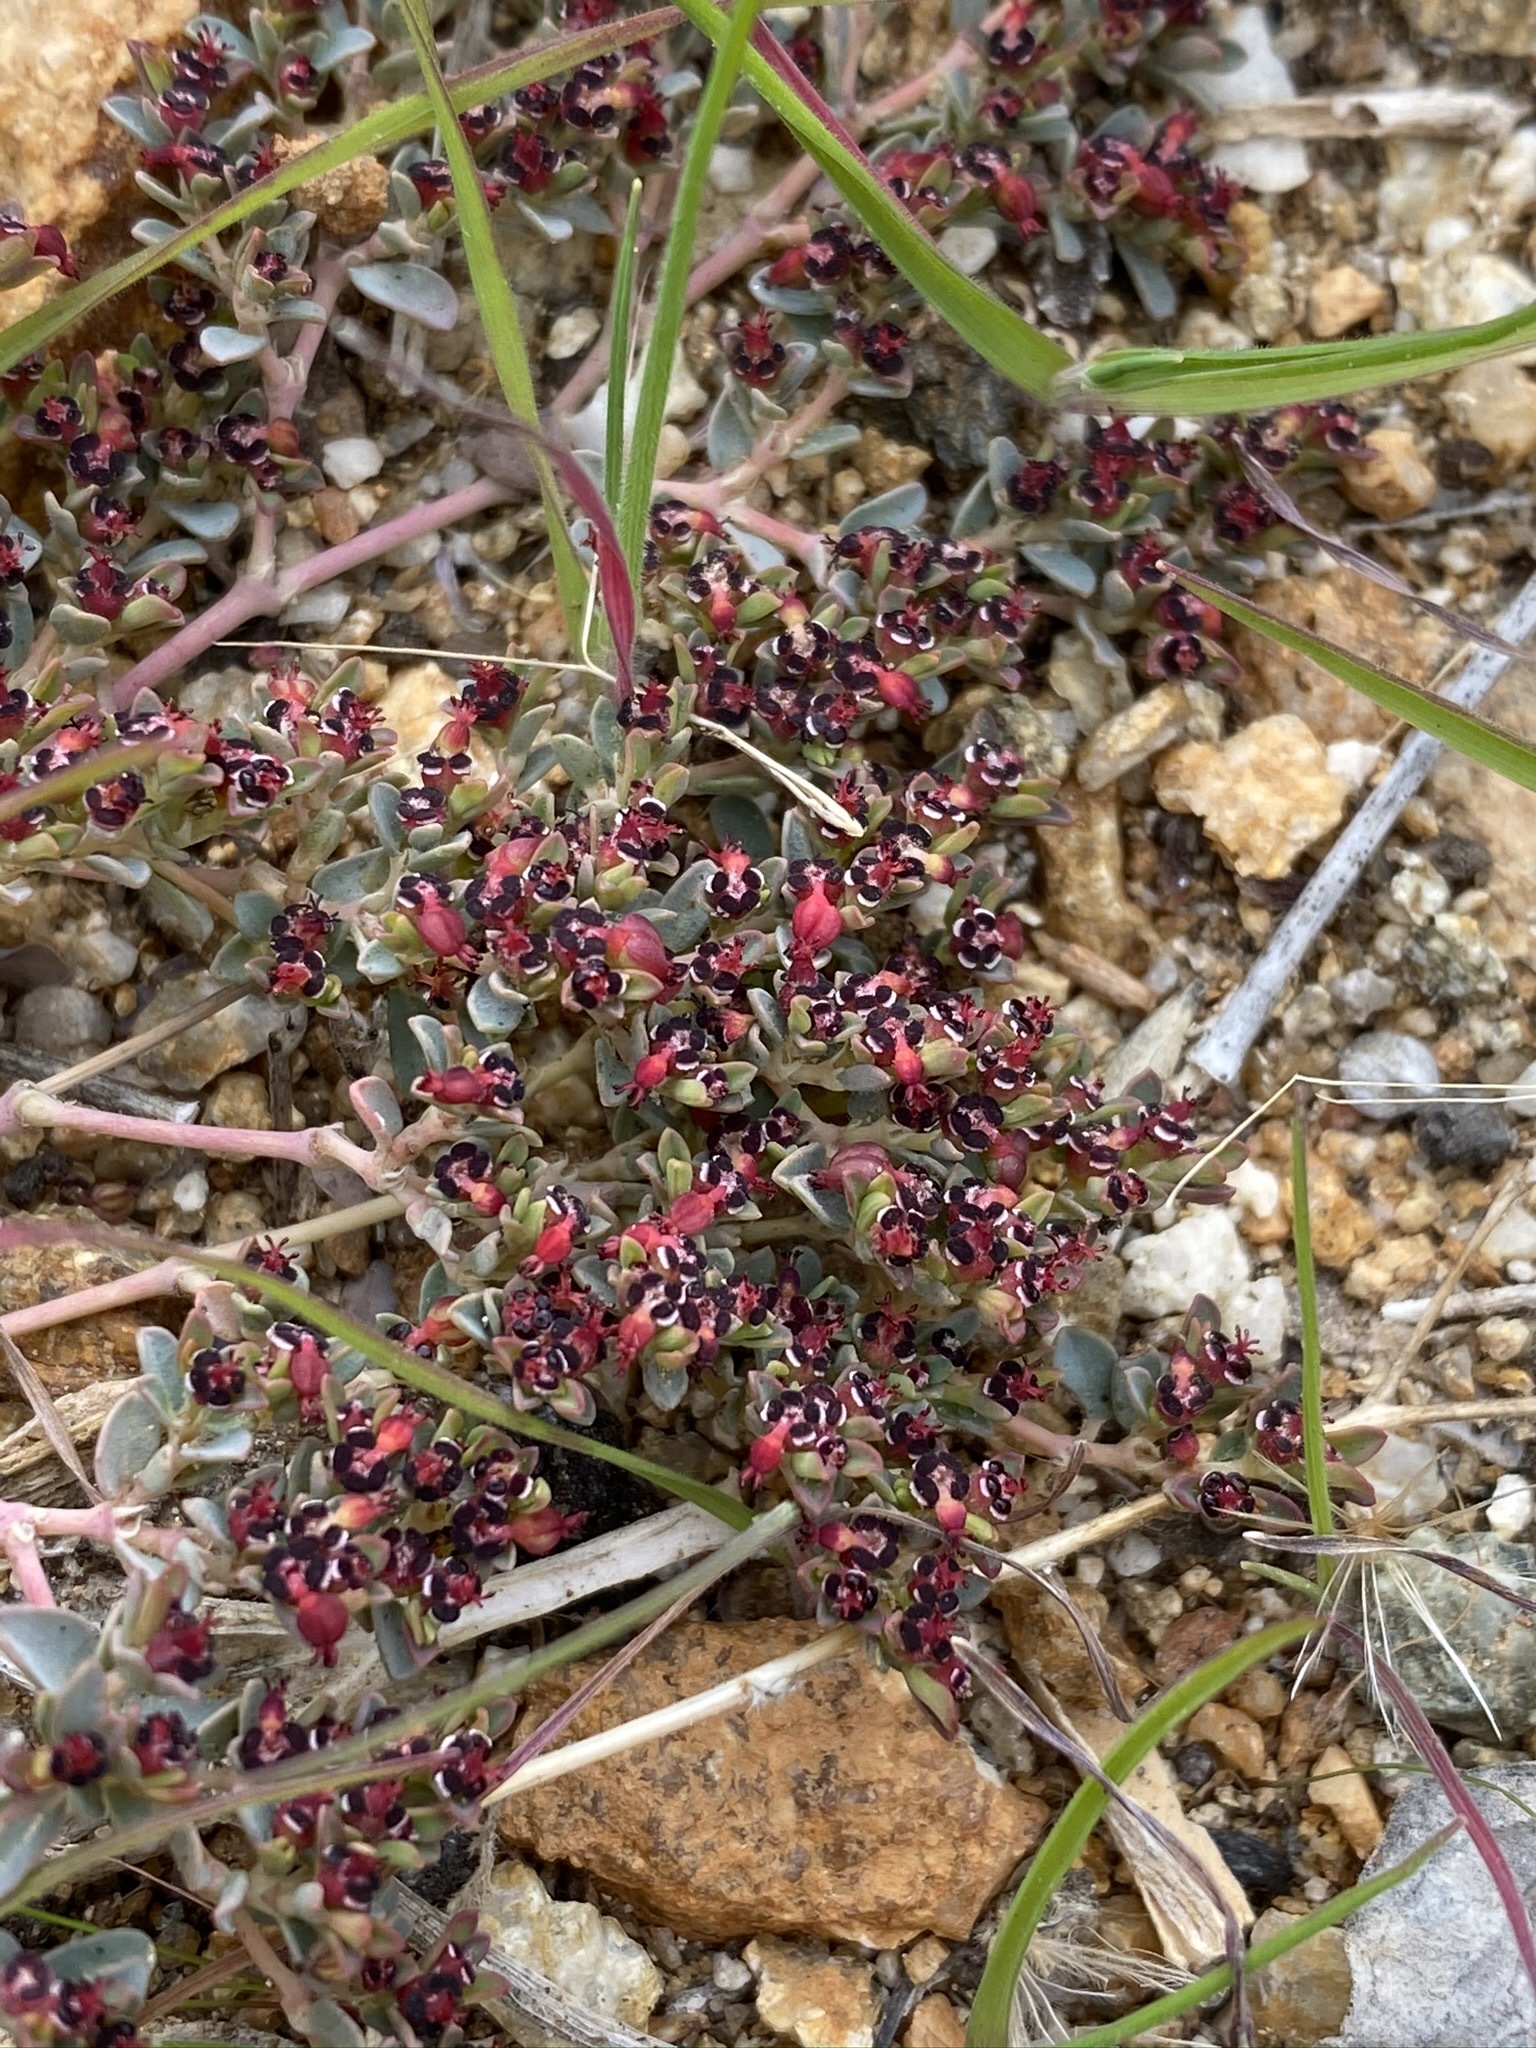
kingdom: Plantae
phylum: Tracheophyta
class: Magnoliopsida
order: Malpighiales
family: Euphorbiaceae
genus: Euphorbia
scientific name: Euphorbia polycarpa
